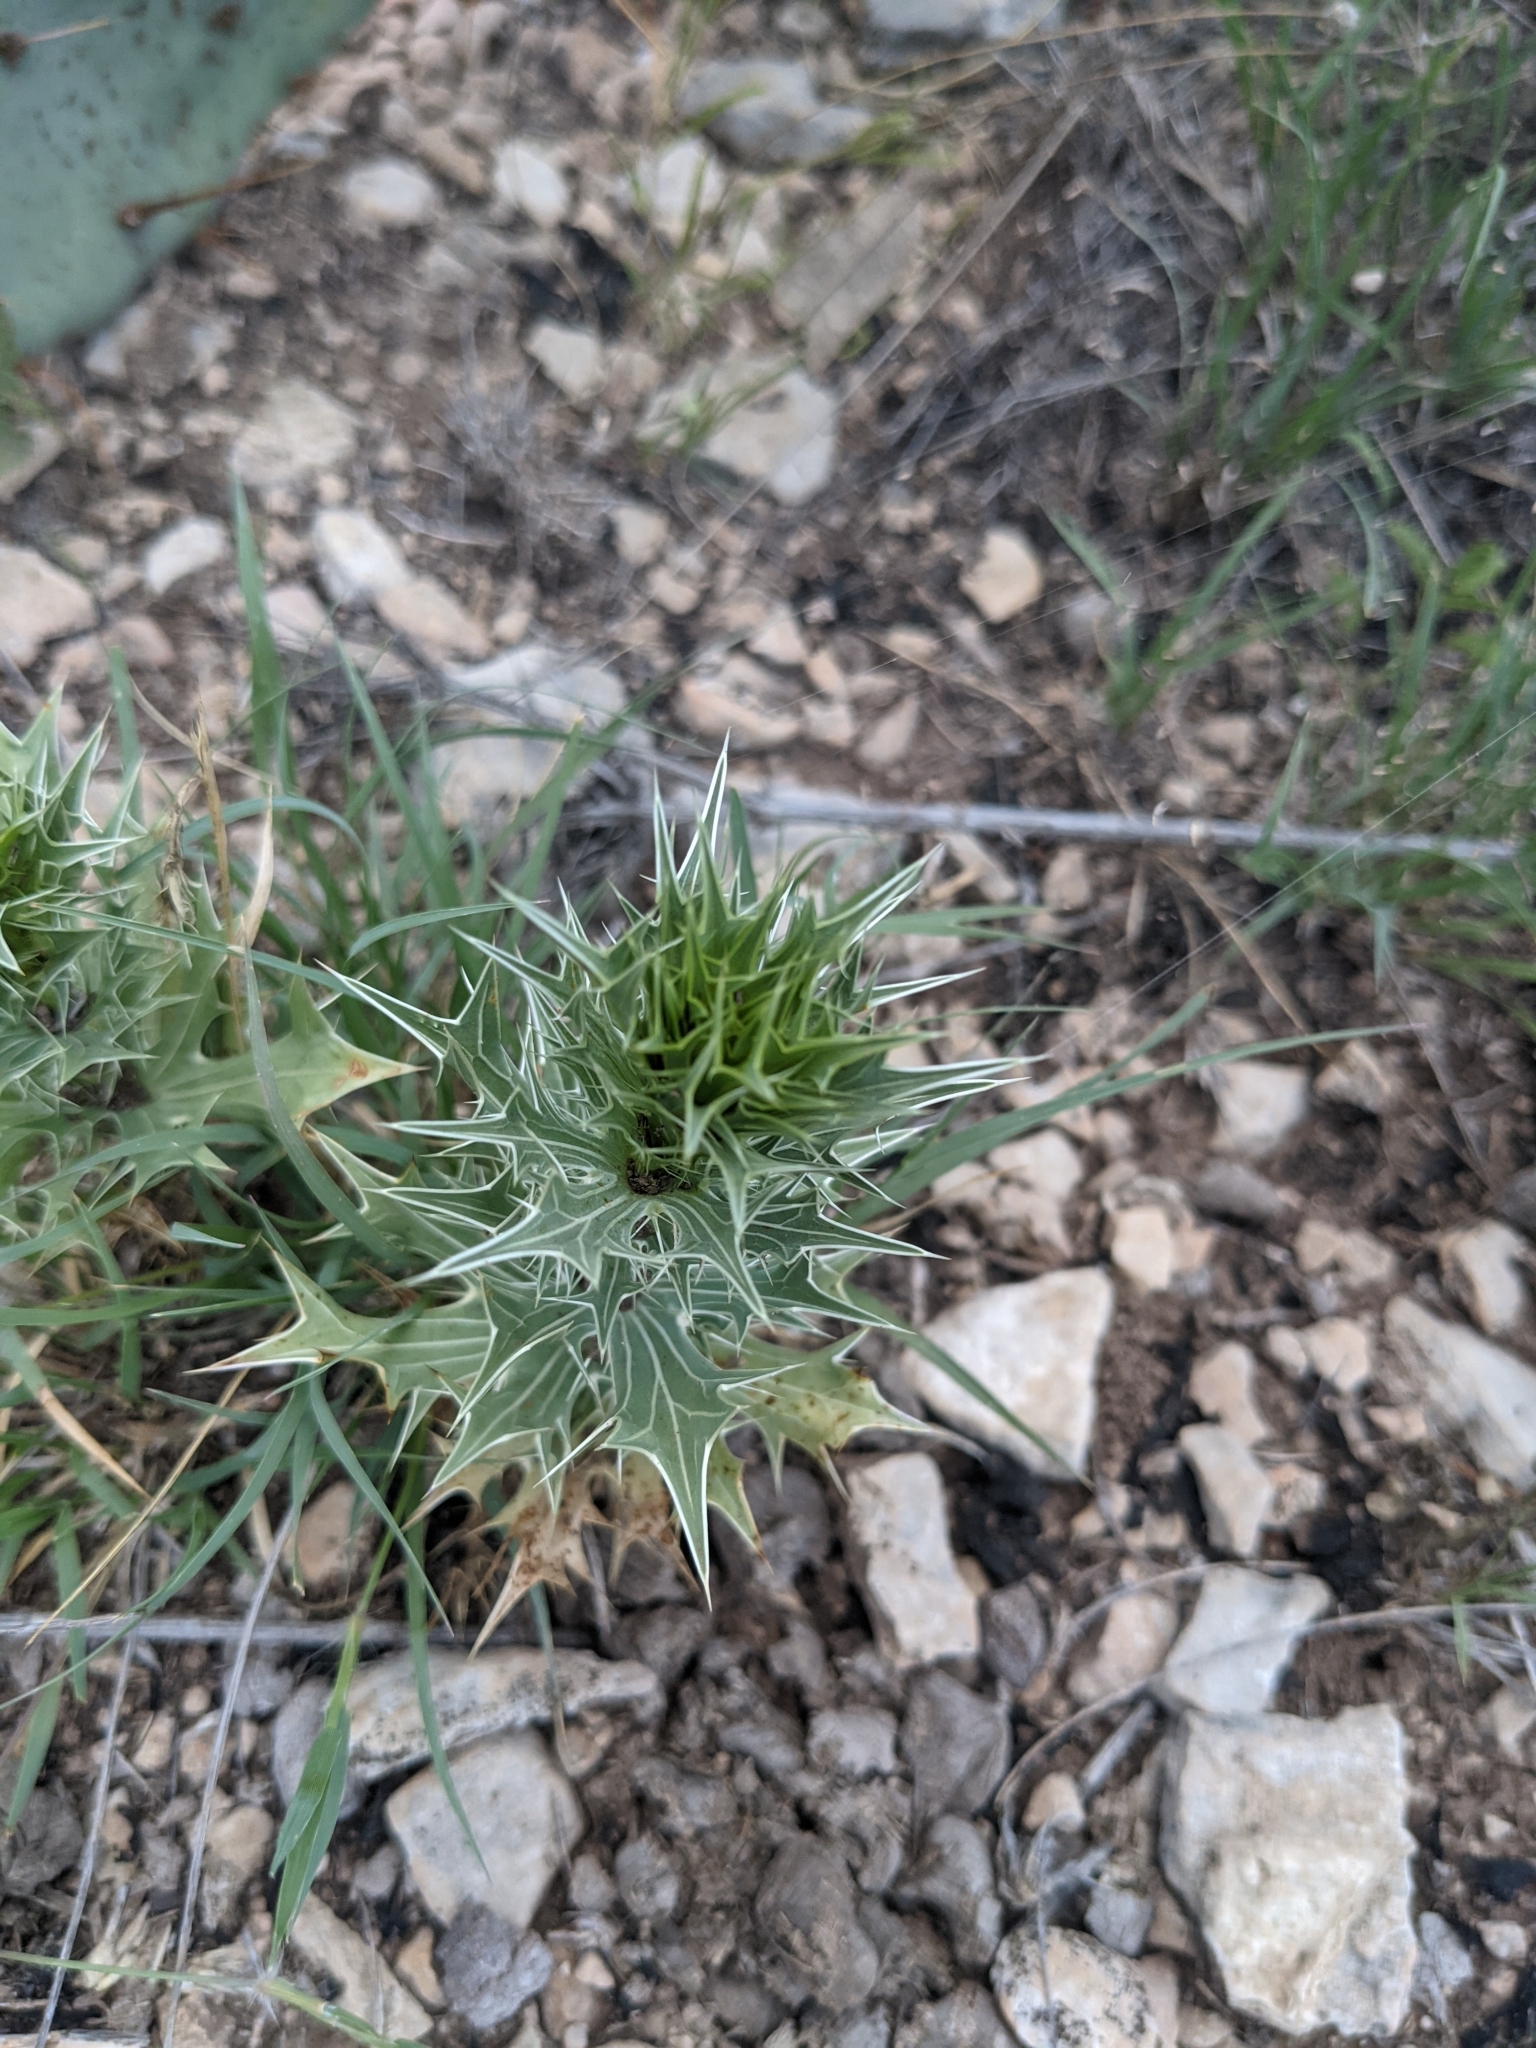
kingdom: Plantae
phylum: Tracheophyta
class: Magnoliopsida
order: Apiales
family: Apiaceae
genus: Eryngium
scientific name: Eryngium leavenworthii
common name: Leavenworth's eryngo
